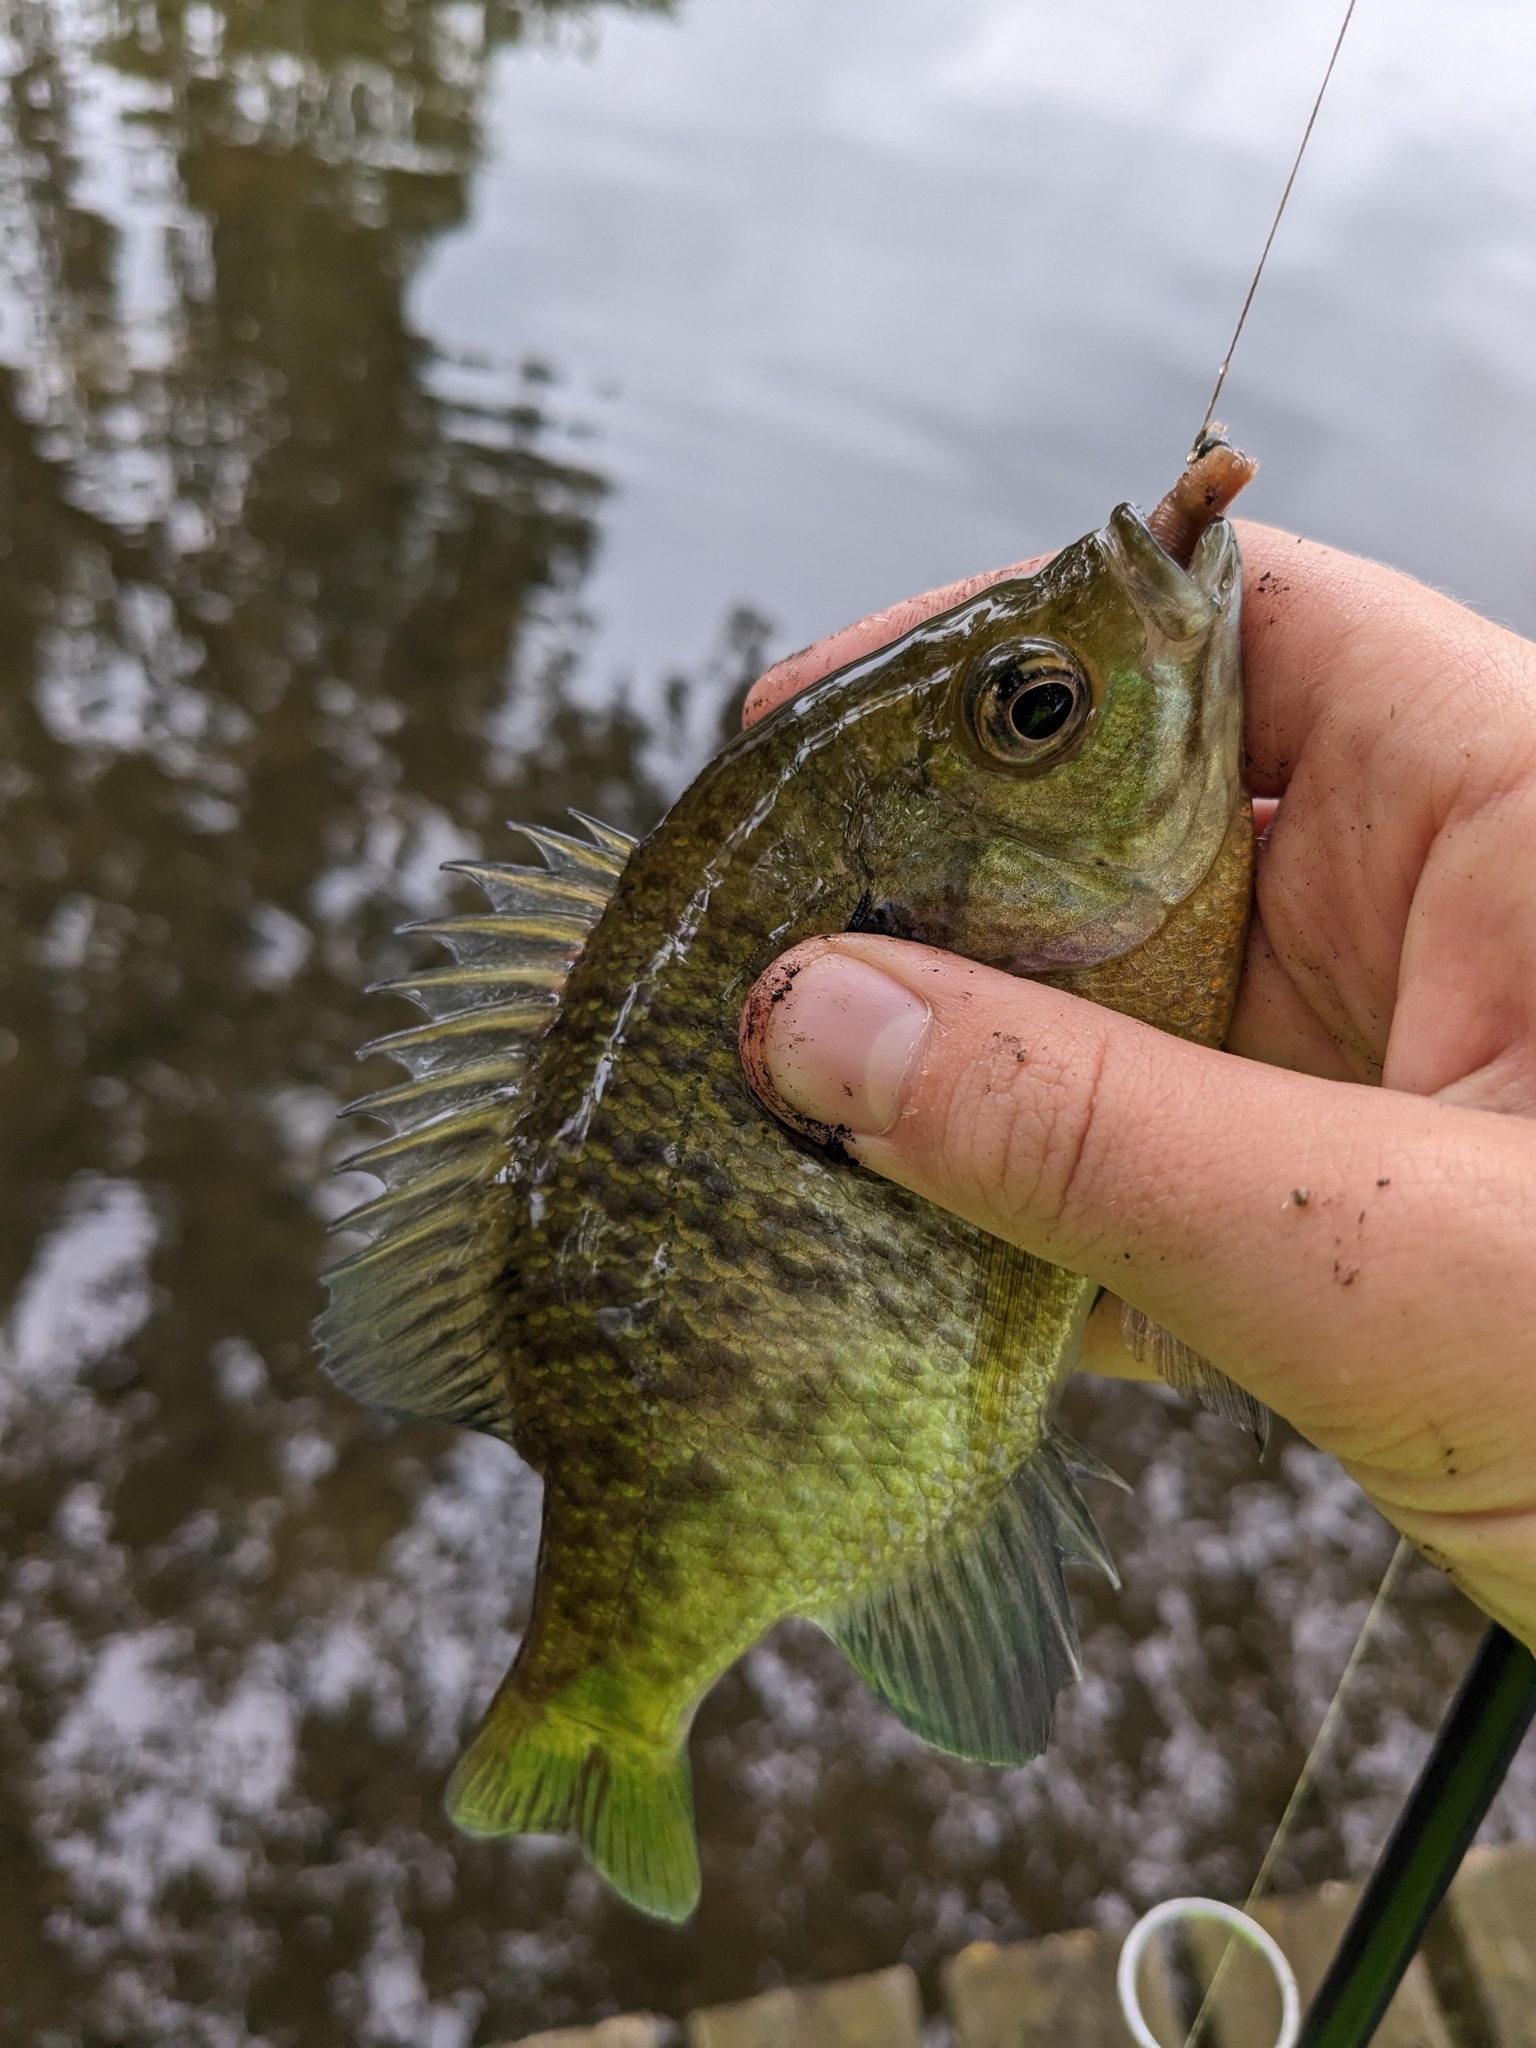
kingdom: Animalia
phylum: Chordata
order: Perciformes
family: Centrarchidae
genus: Lepomis
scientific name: Lepomis macrochirus
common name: Bluegill
